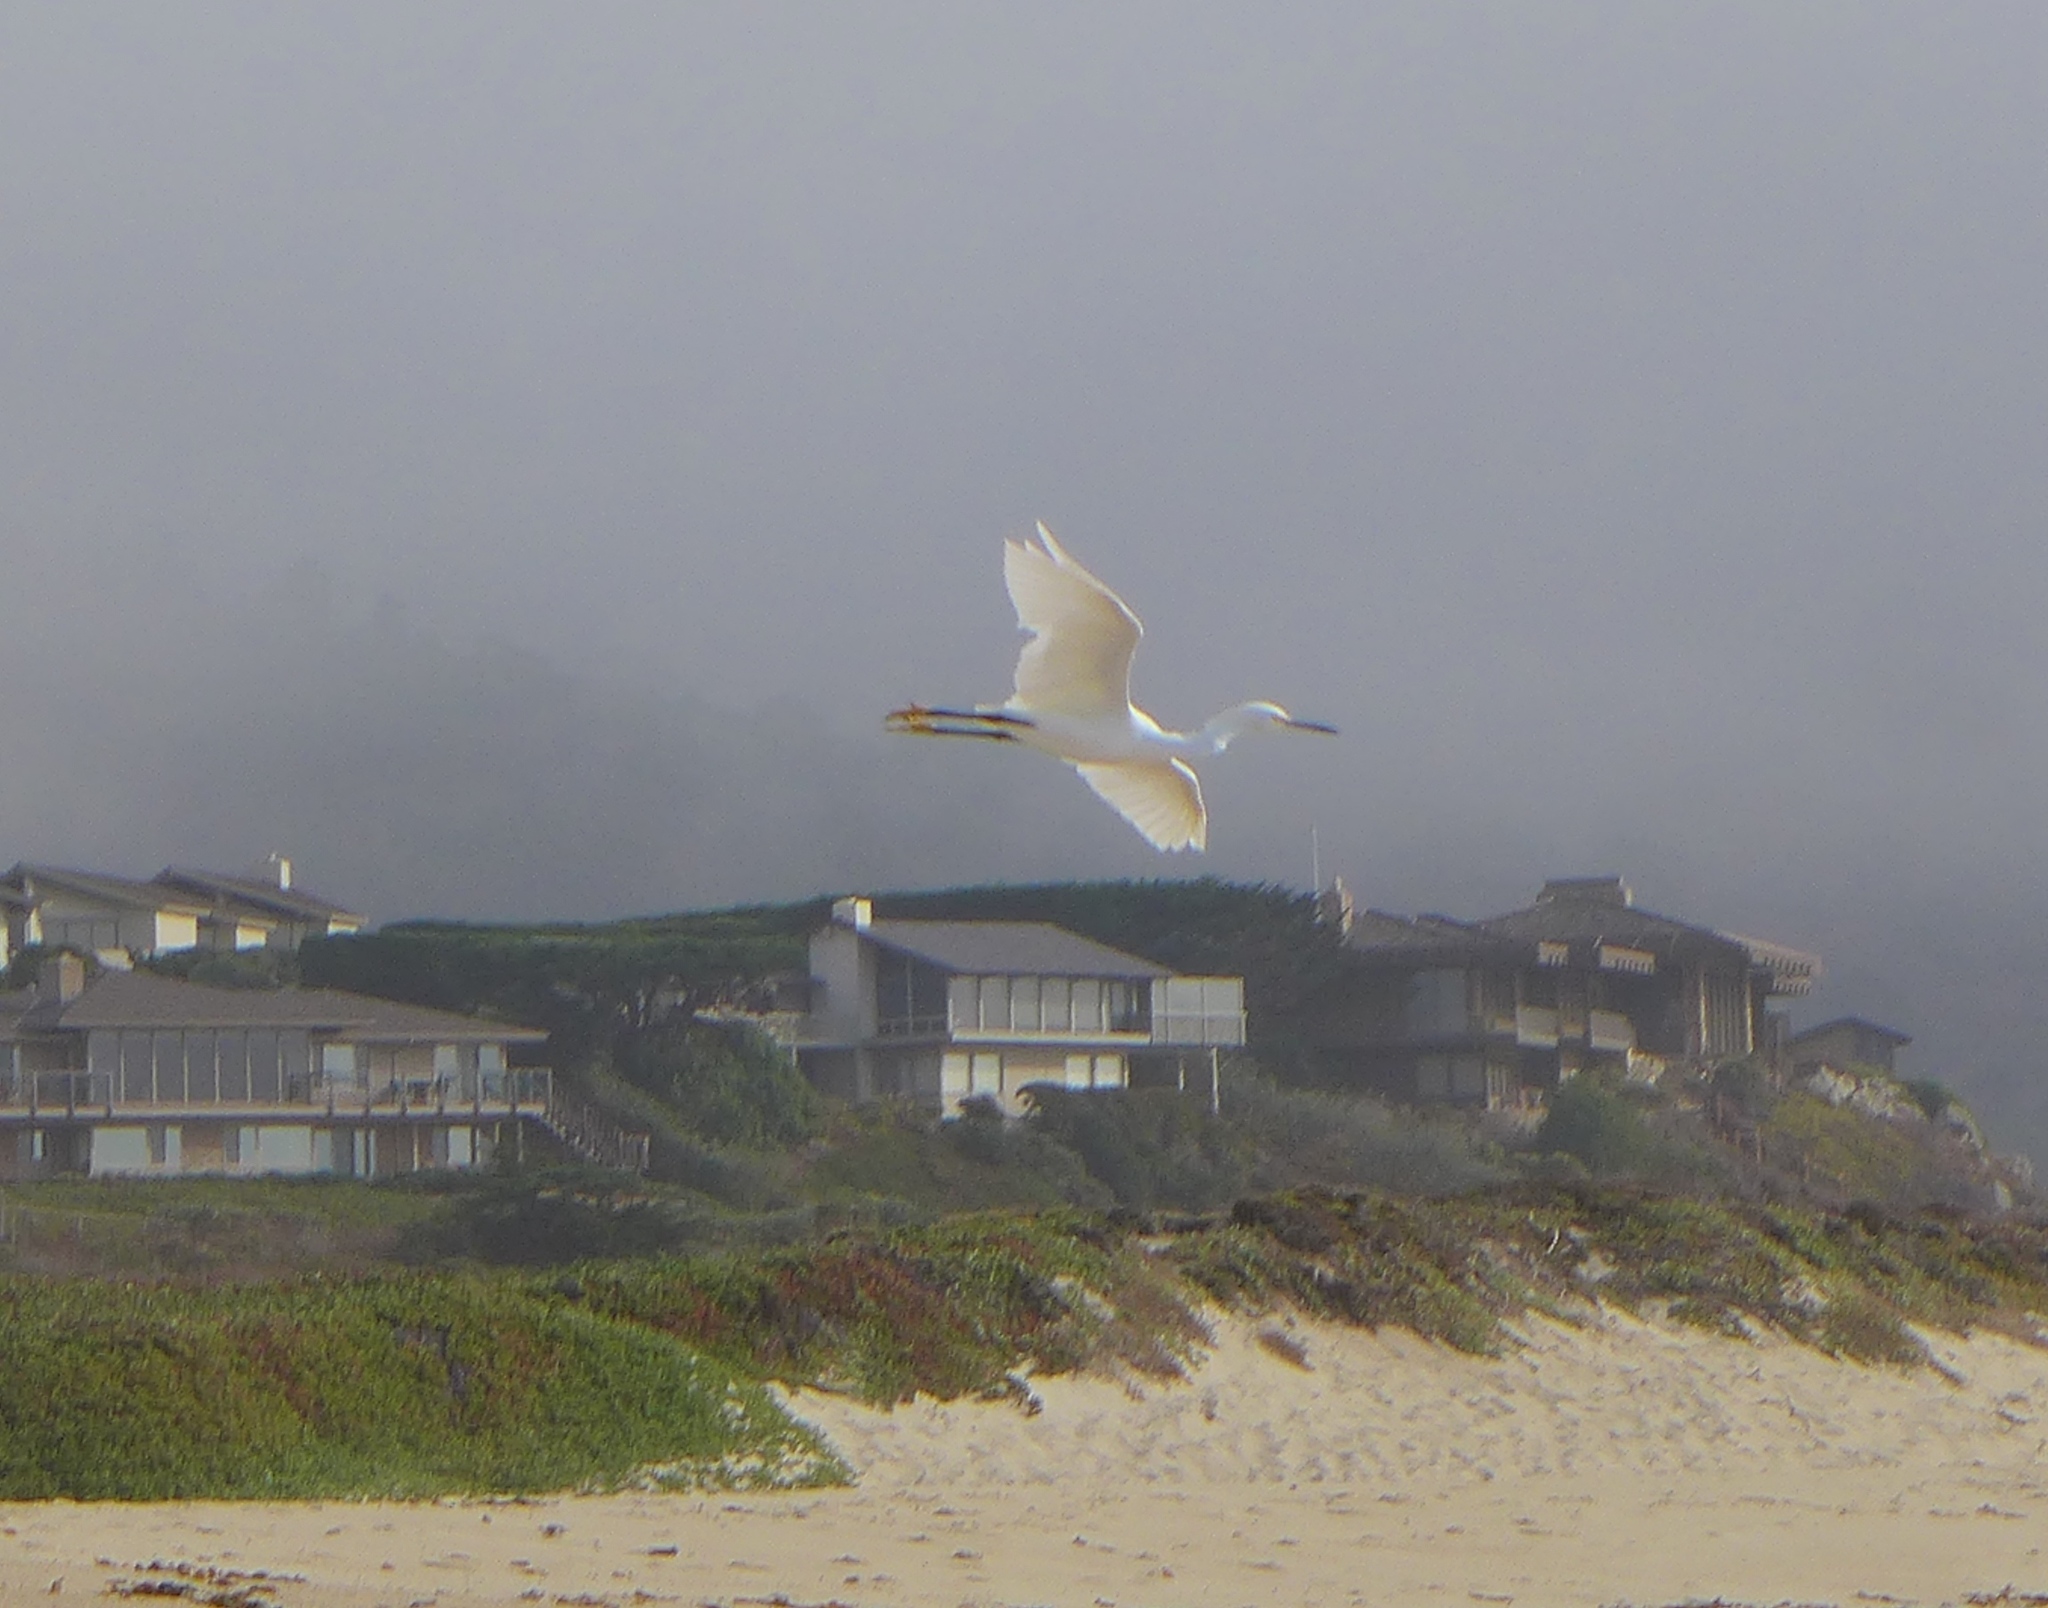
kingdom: Animalia
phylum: Chordata
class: Aves
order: Pelecaniformes
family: Ardeidae
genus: Egretta
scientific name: Egretta thula
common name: Snowy egret
